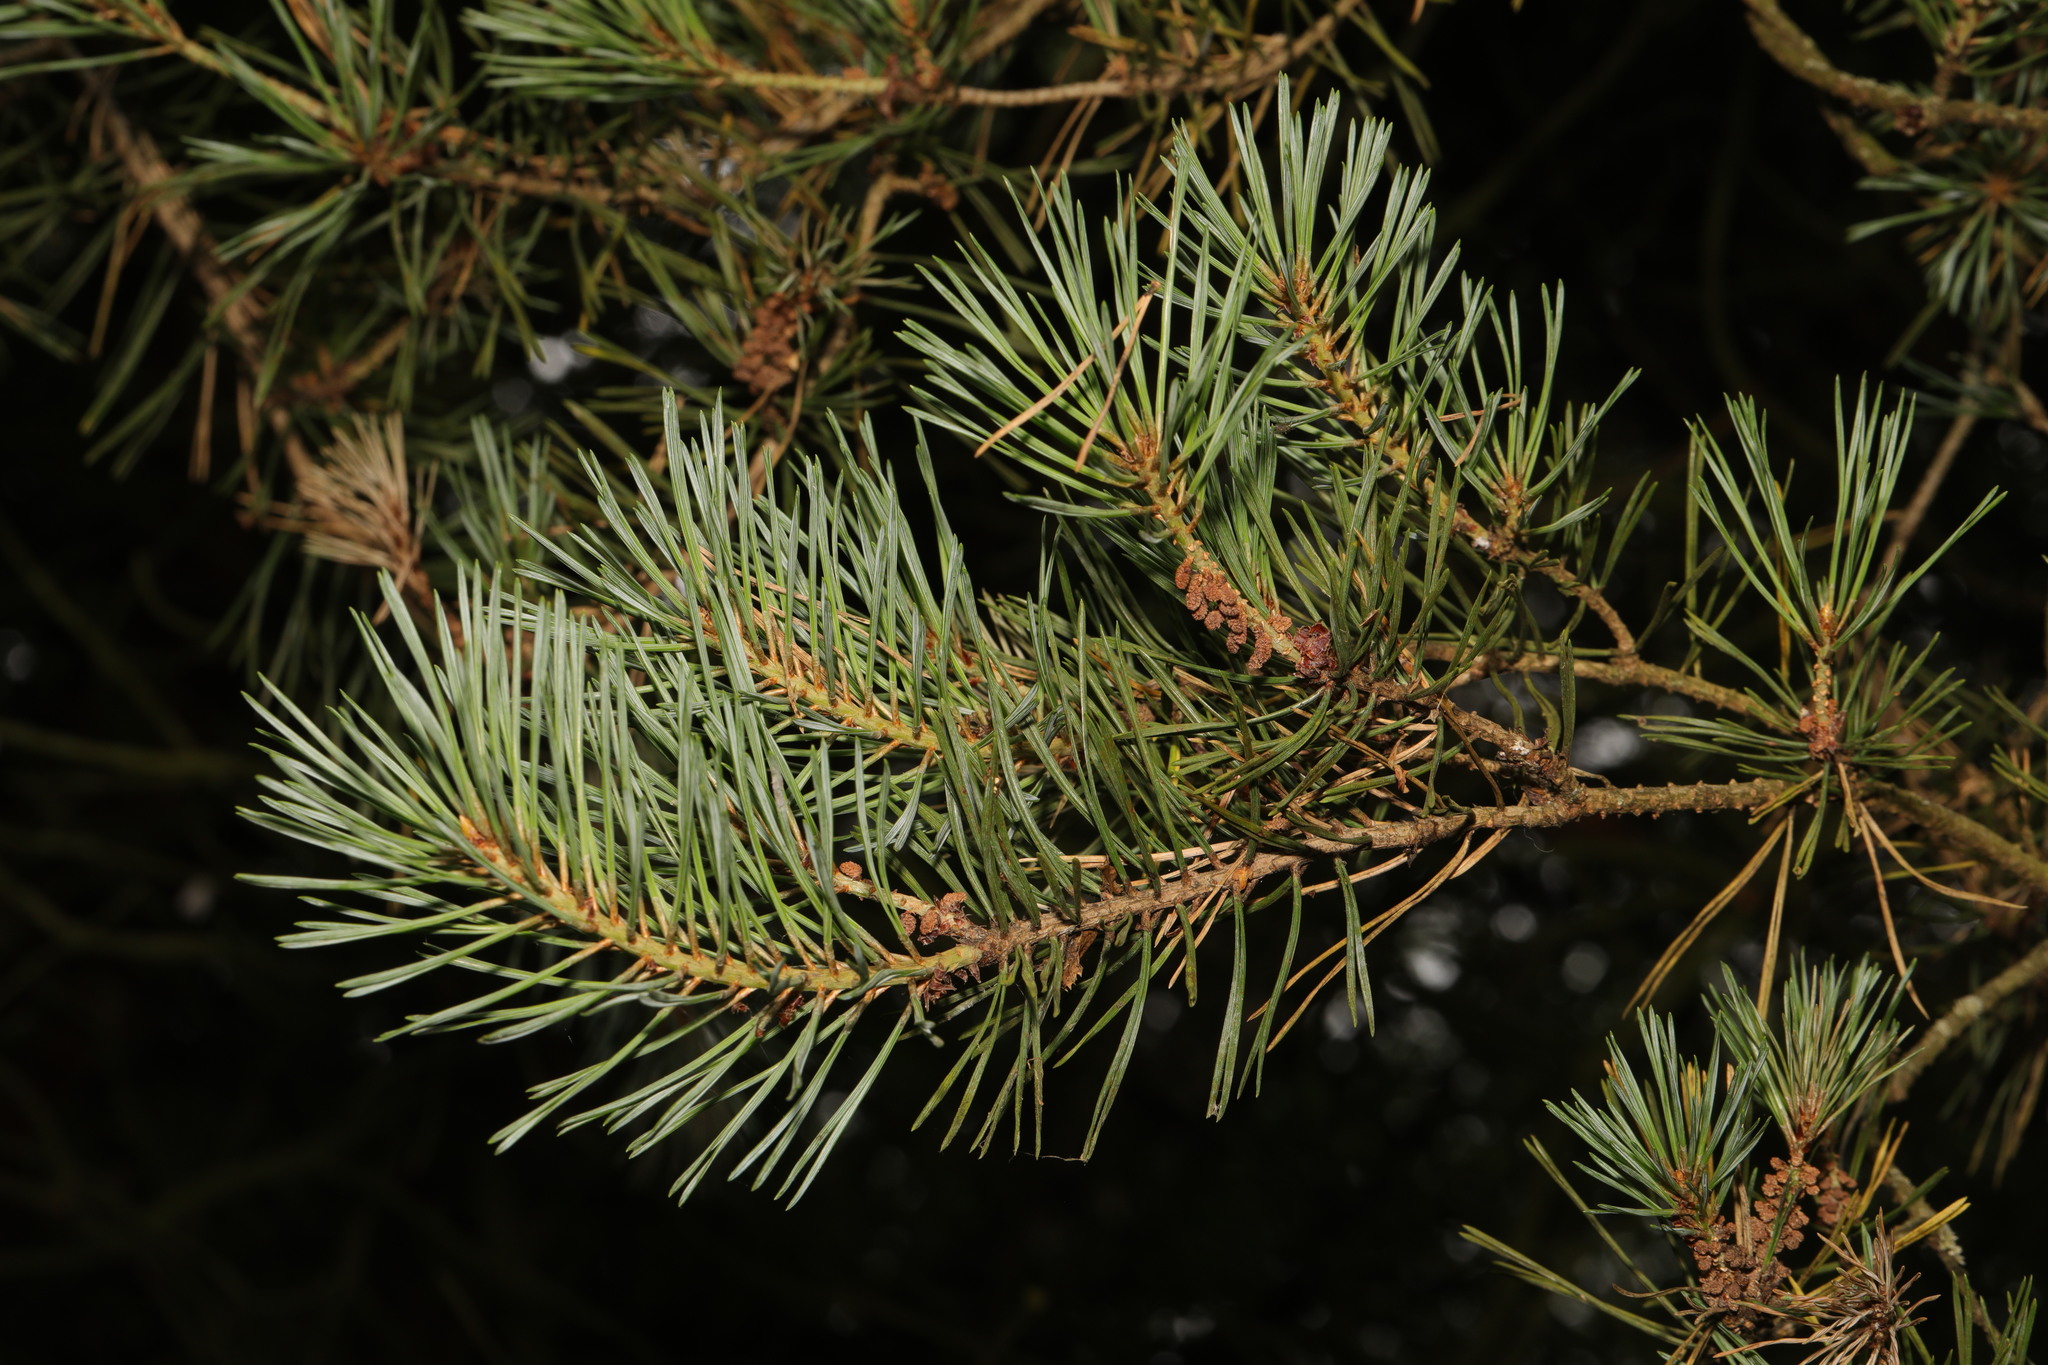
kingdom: Plantae
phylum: Tracheophyta
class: Pinopsida
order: Pinales
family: Pinaceae
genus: Pinus
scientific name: Pinus contorta
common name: Lodgepole pine
